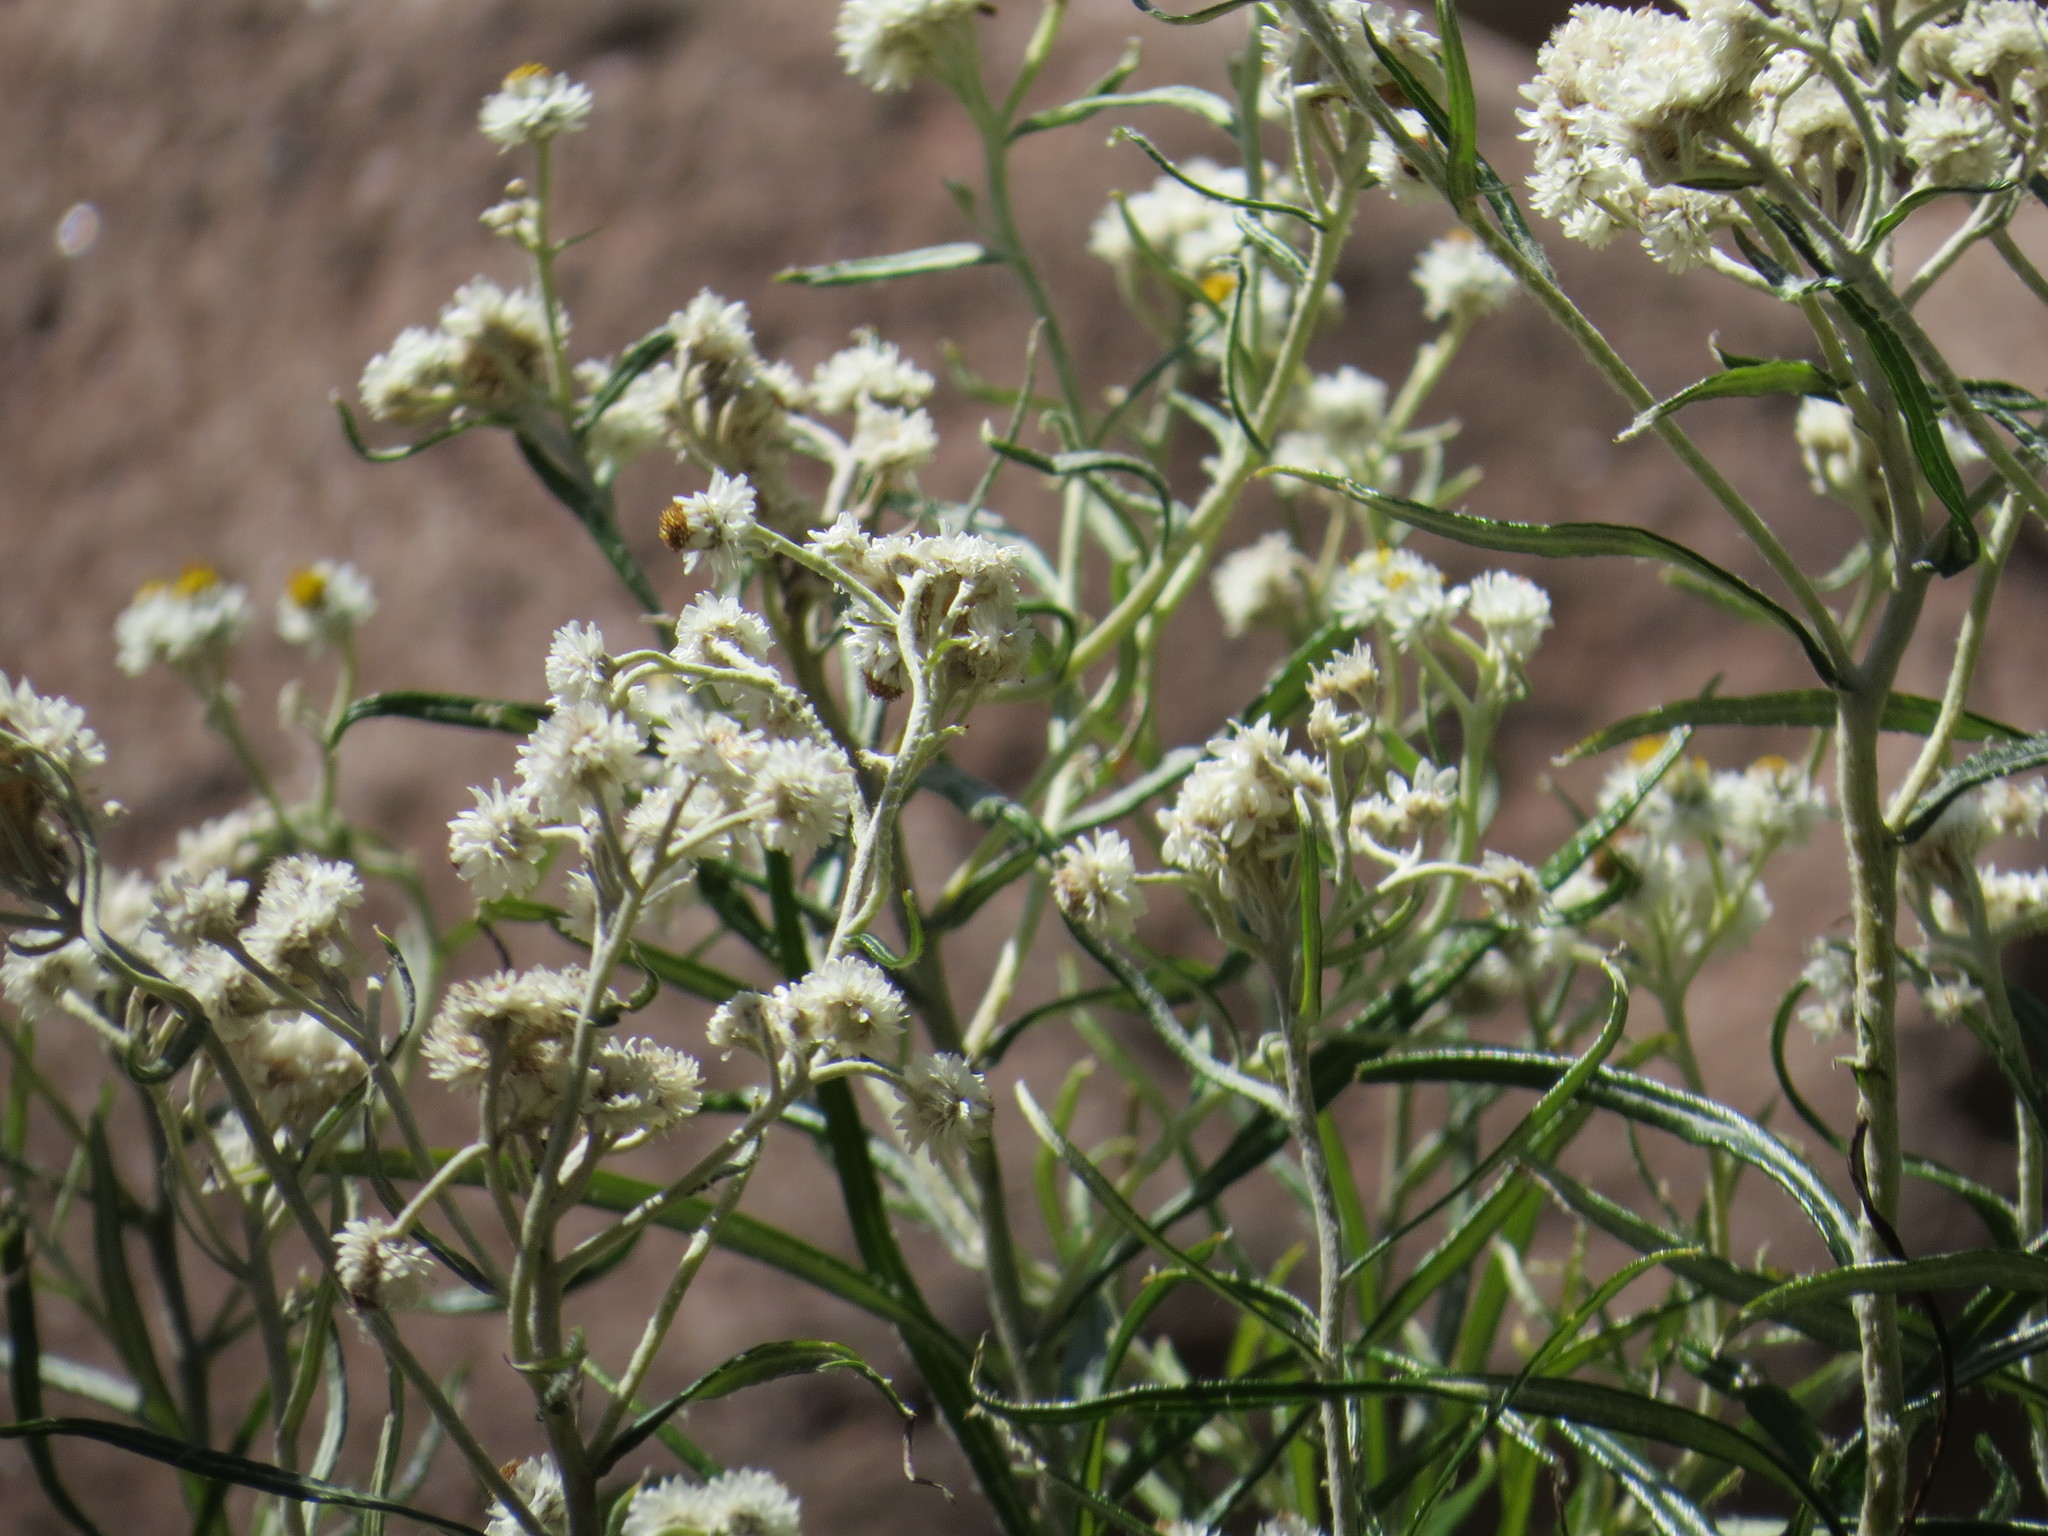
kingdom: Plantae
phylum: Tracheophyta
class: Magnoliopsida
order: Asterales
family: Asteraceae
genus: Anaphalis
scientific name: Anaphalis margaritacea
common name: Pearly everlasting
